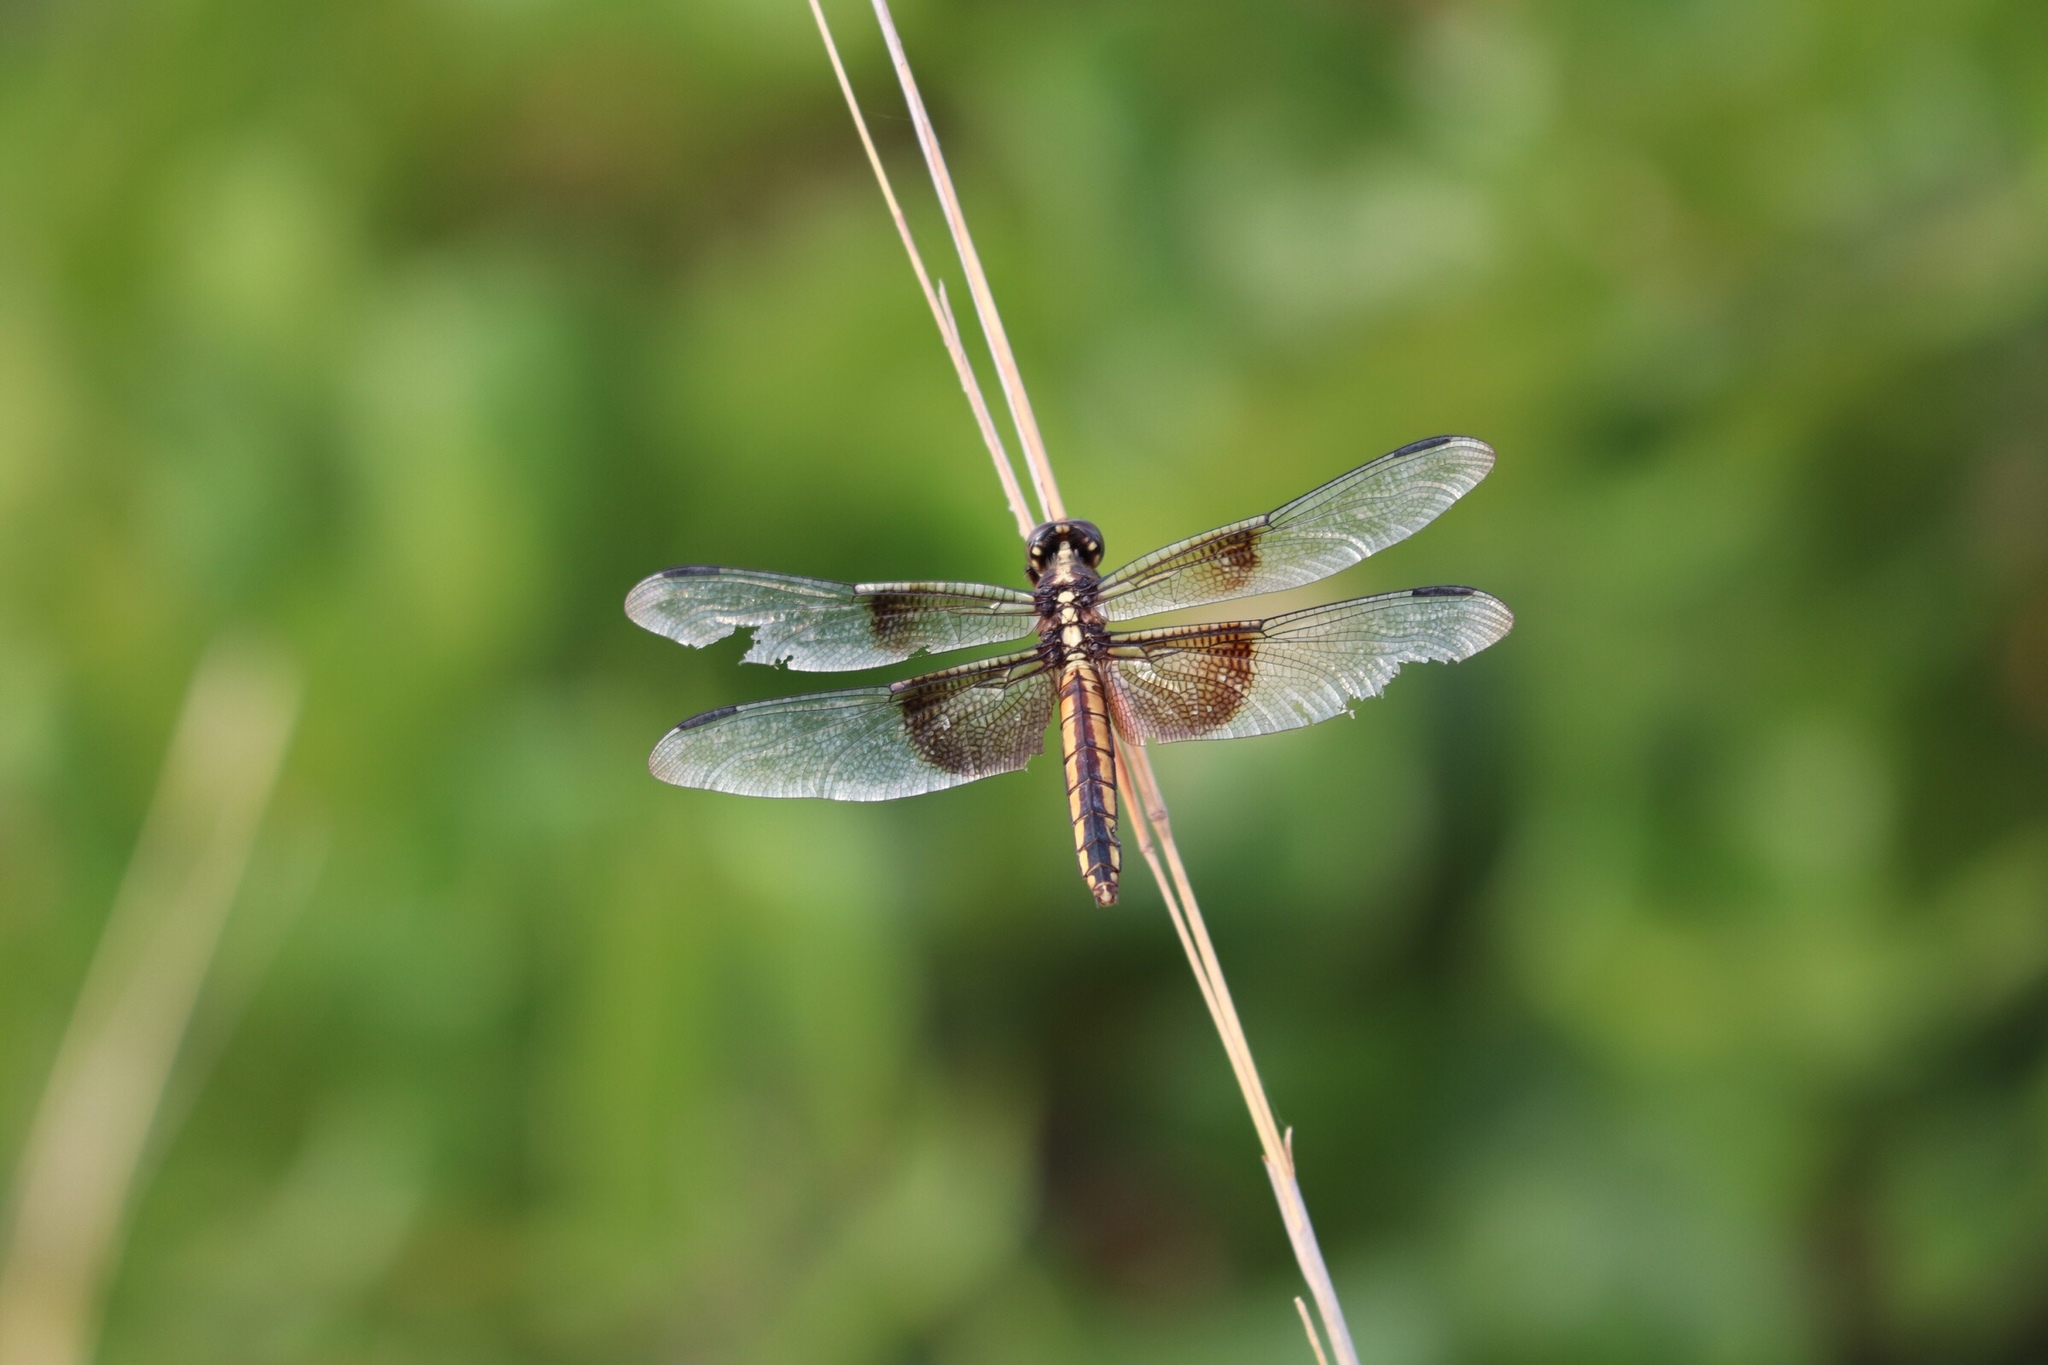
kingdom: Animalia
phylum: Arthropoda
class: Insecta
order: Odonata
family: Libellulidae
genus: Libellula
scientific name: Libellula luctuosa
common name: Widow skimmer
